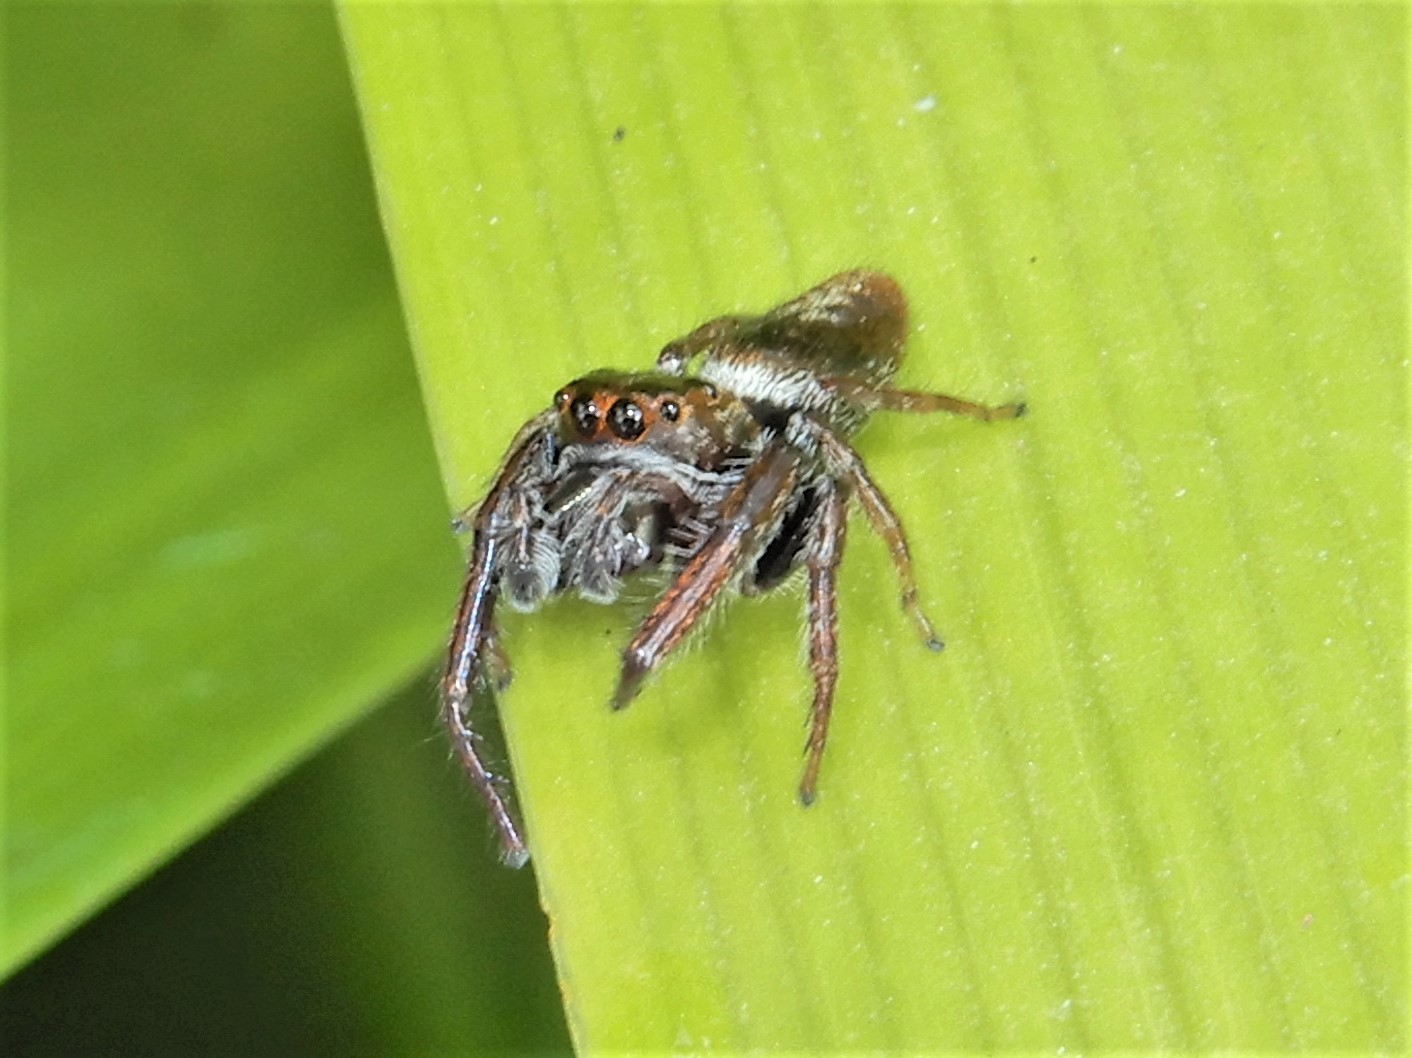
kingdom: Animalia
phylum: Arthropoda
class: Arachnida
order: Araneae
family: Salticidae
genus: Opisthoncus
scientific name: Opisthoncus polyphemus
